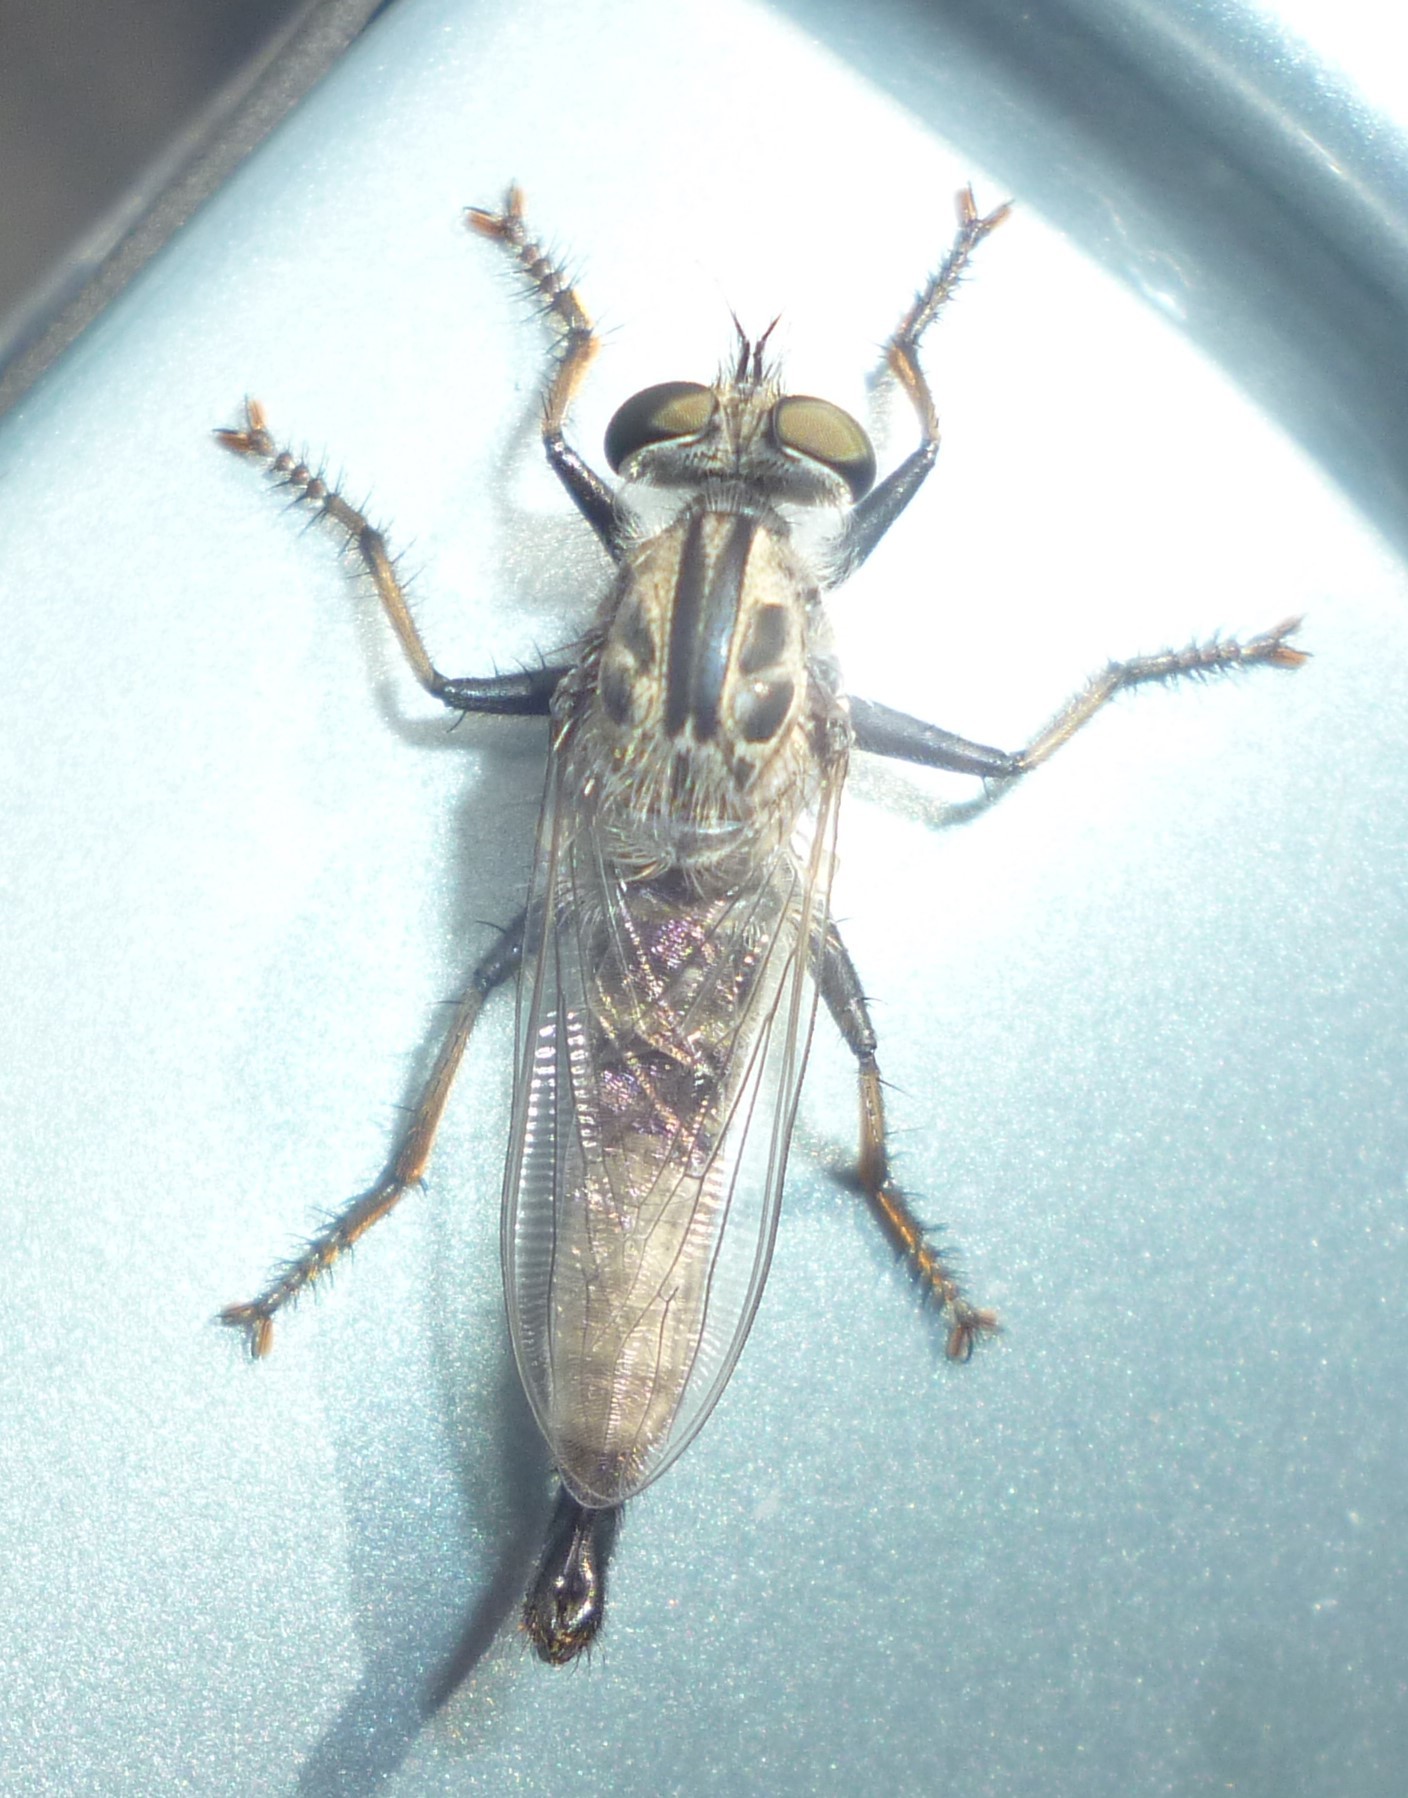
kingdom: Animalia
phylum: Arthropoda
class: Insecta
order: Diptera
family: Asilidae
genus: Efferia
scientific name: Efferia aestuans
